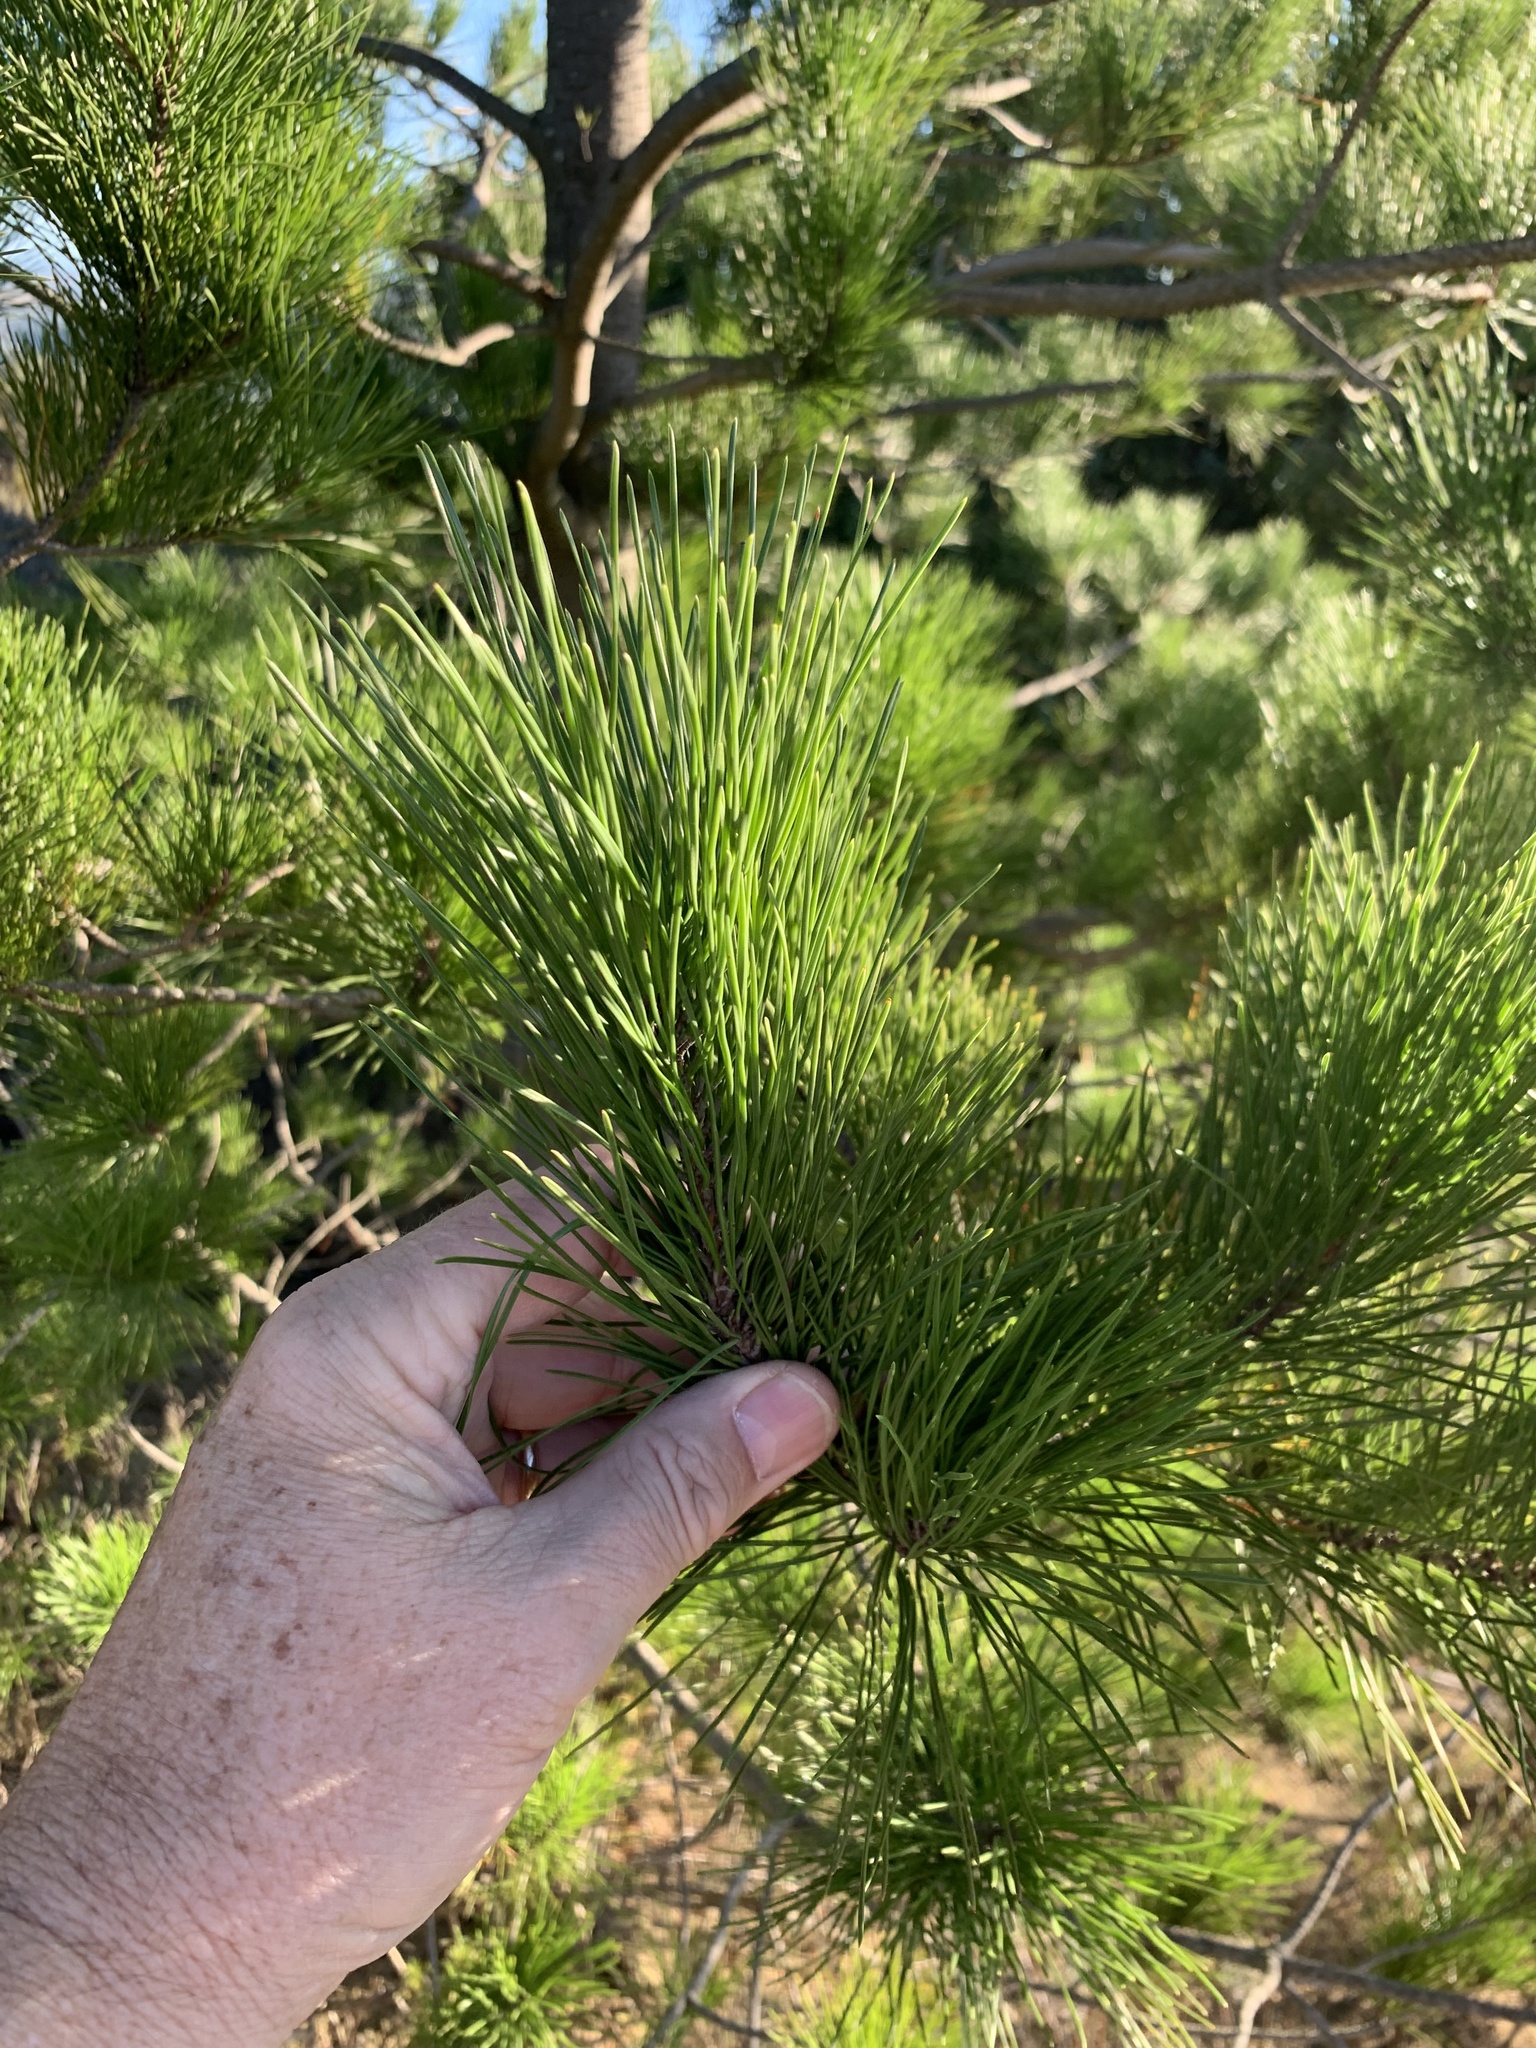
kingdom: Plantae
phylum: Tracheophyta
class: Pinopsida
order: Pinales
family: Pinaceae
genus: Pinus
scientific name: Pinus radiata
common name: Monterey pine
